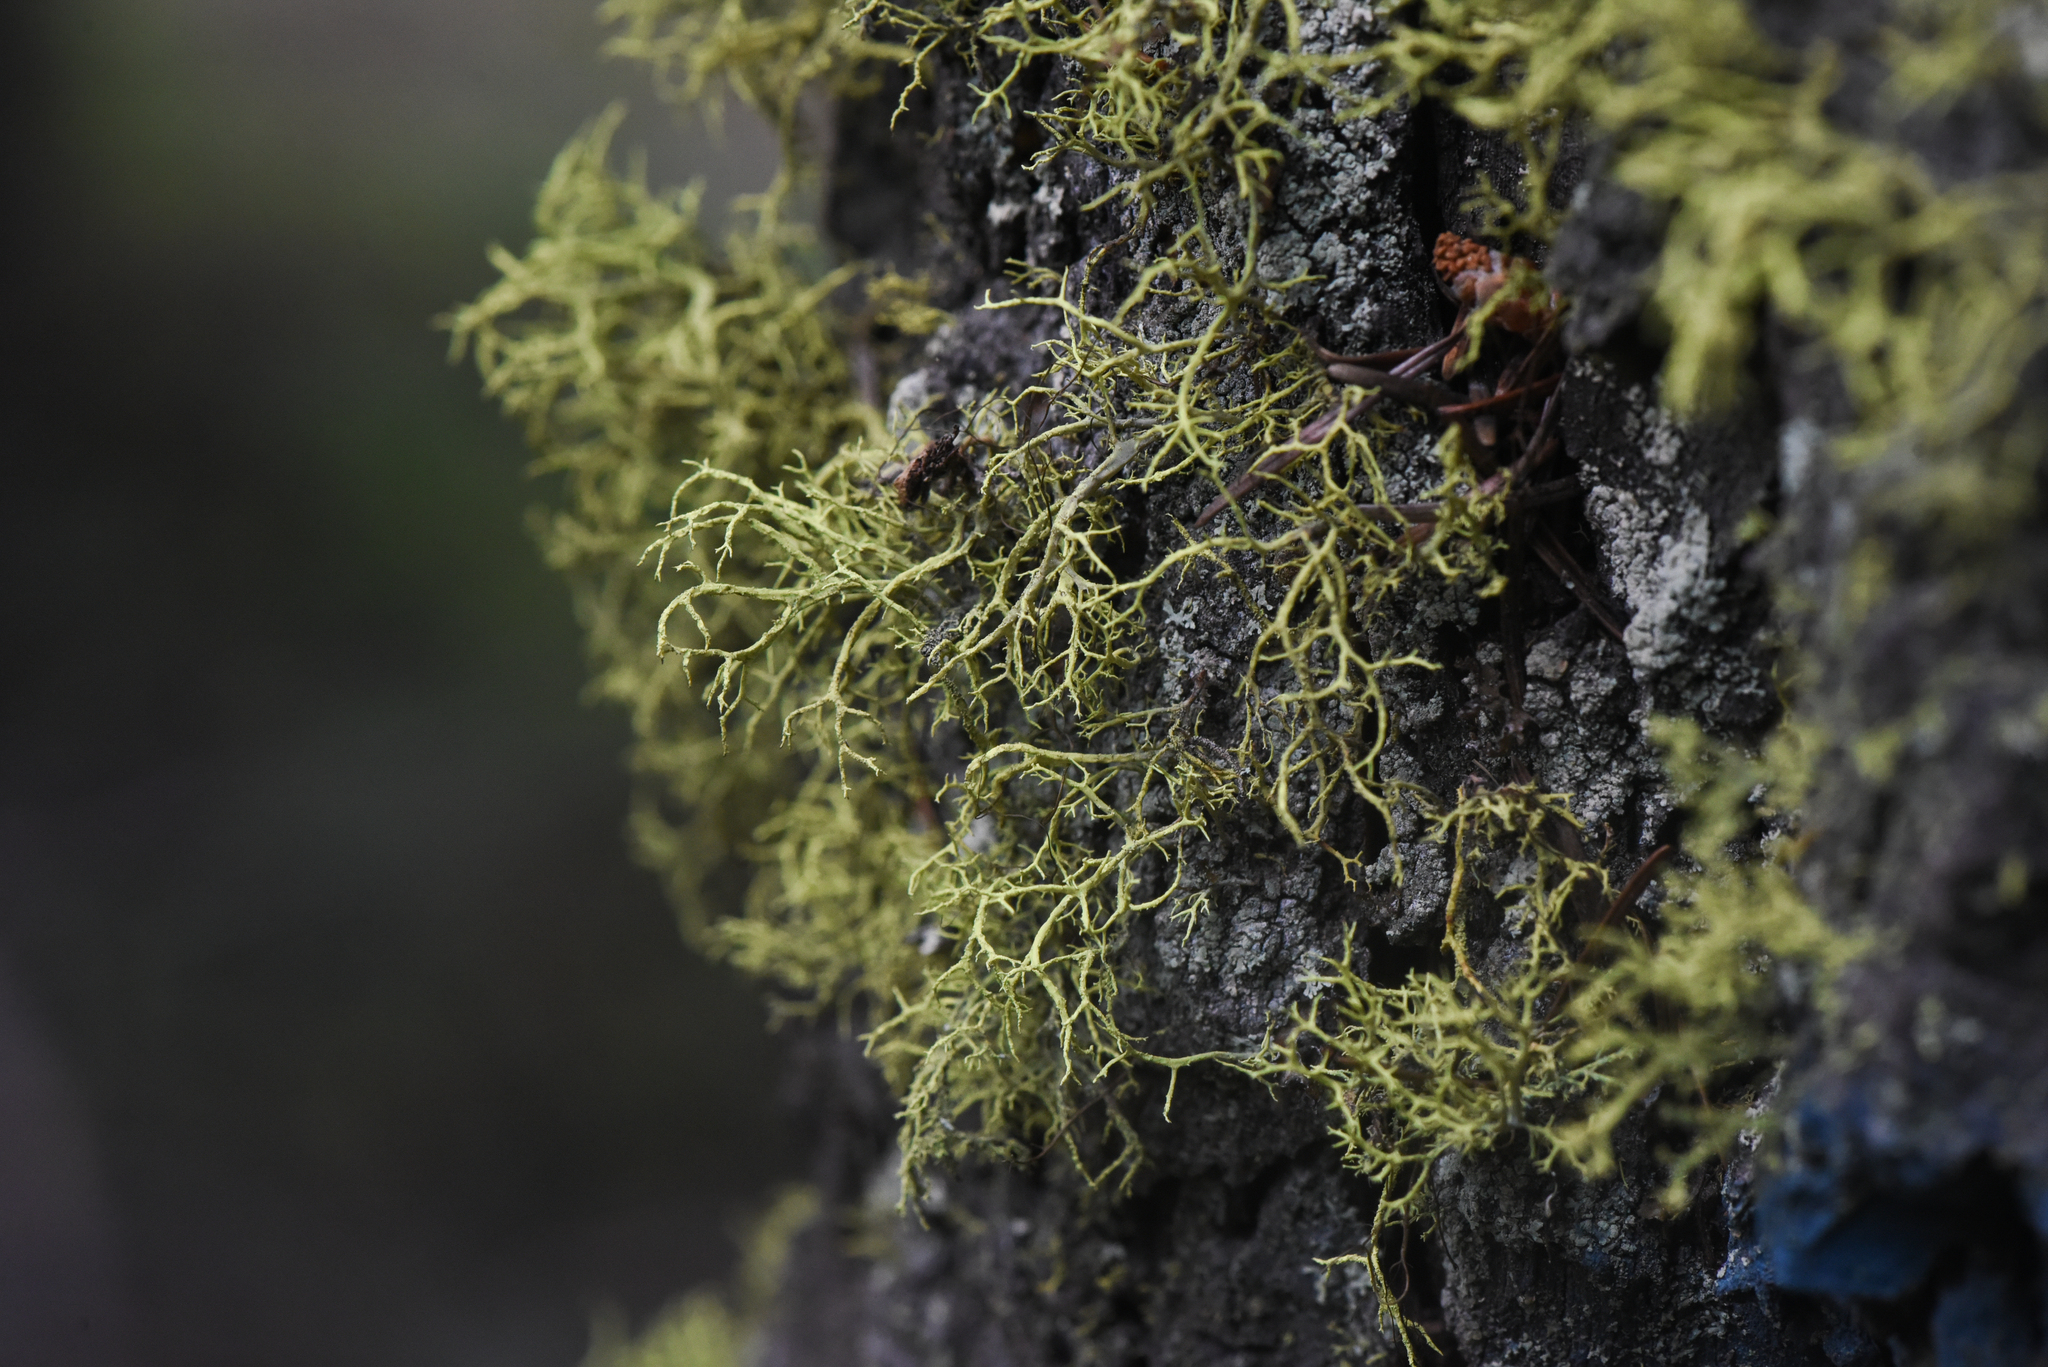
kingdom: Fungi
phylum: Ascomycota
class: Lecanoromycetes
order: Lecanorales
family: Parmeliaceae
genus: Letharia
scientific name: Letharia vulpina
